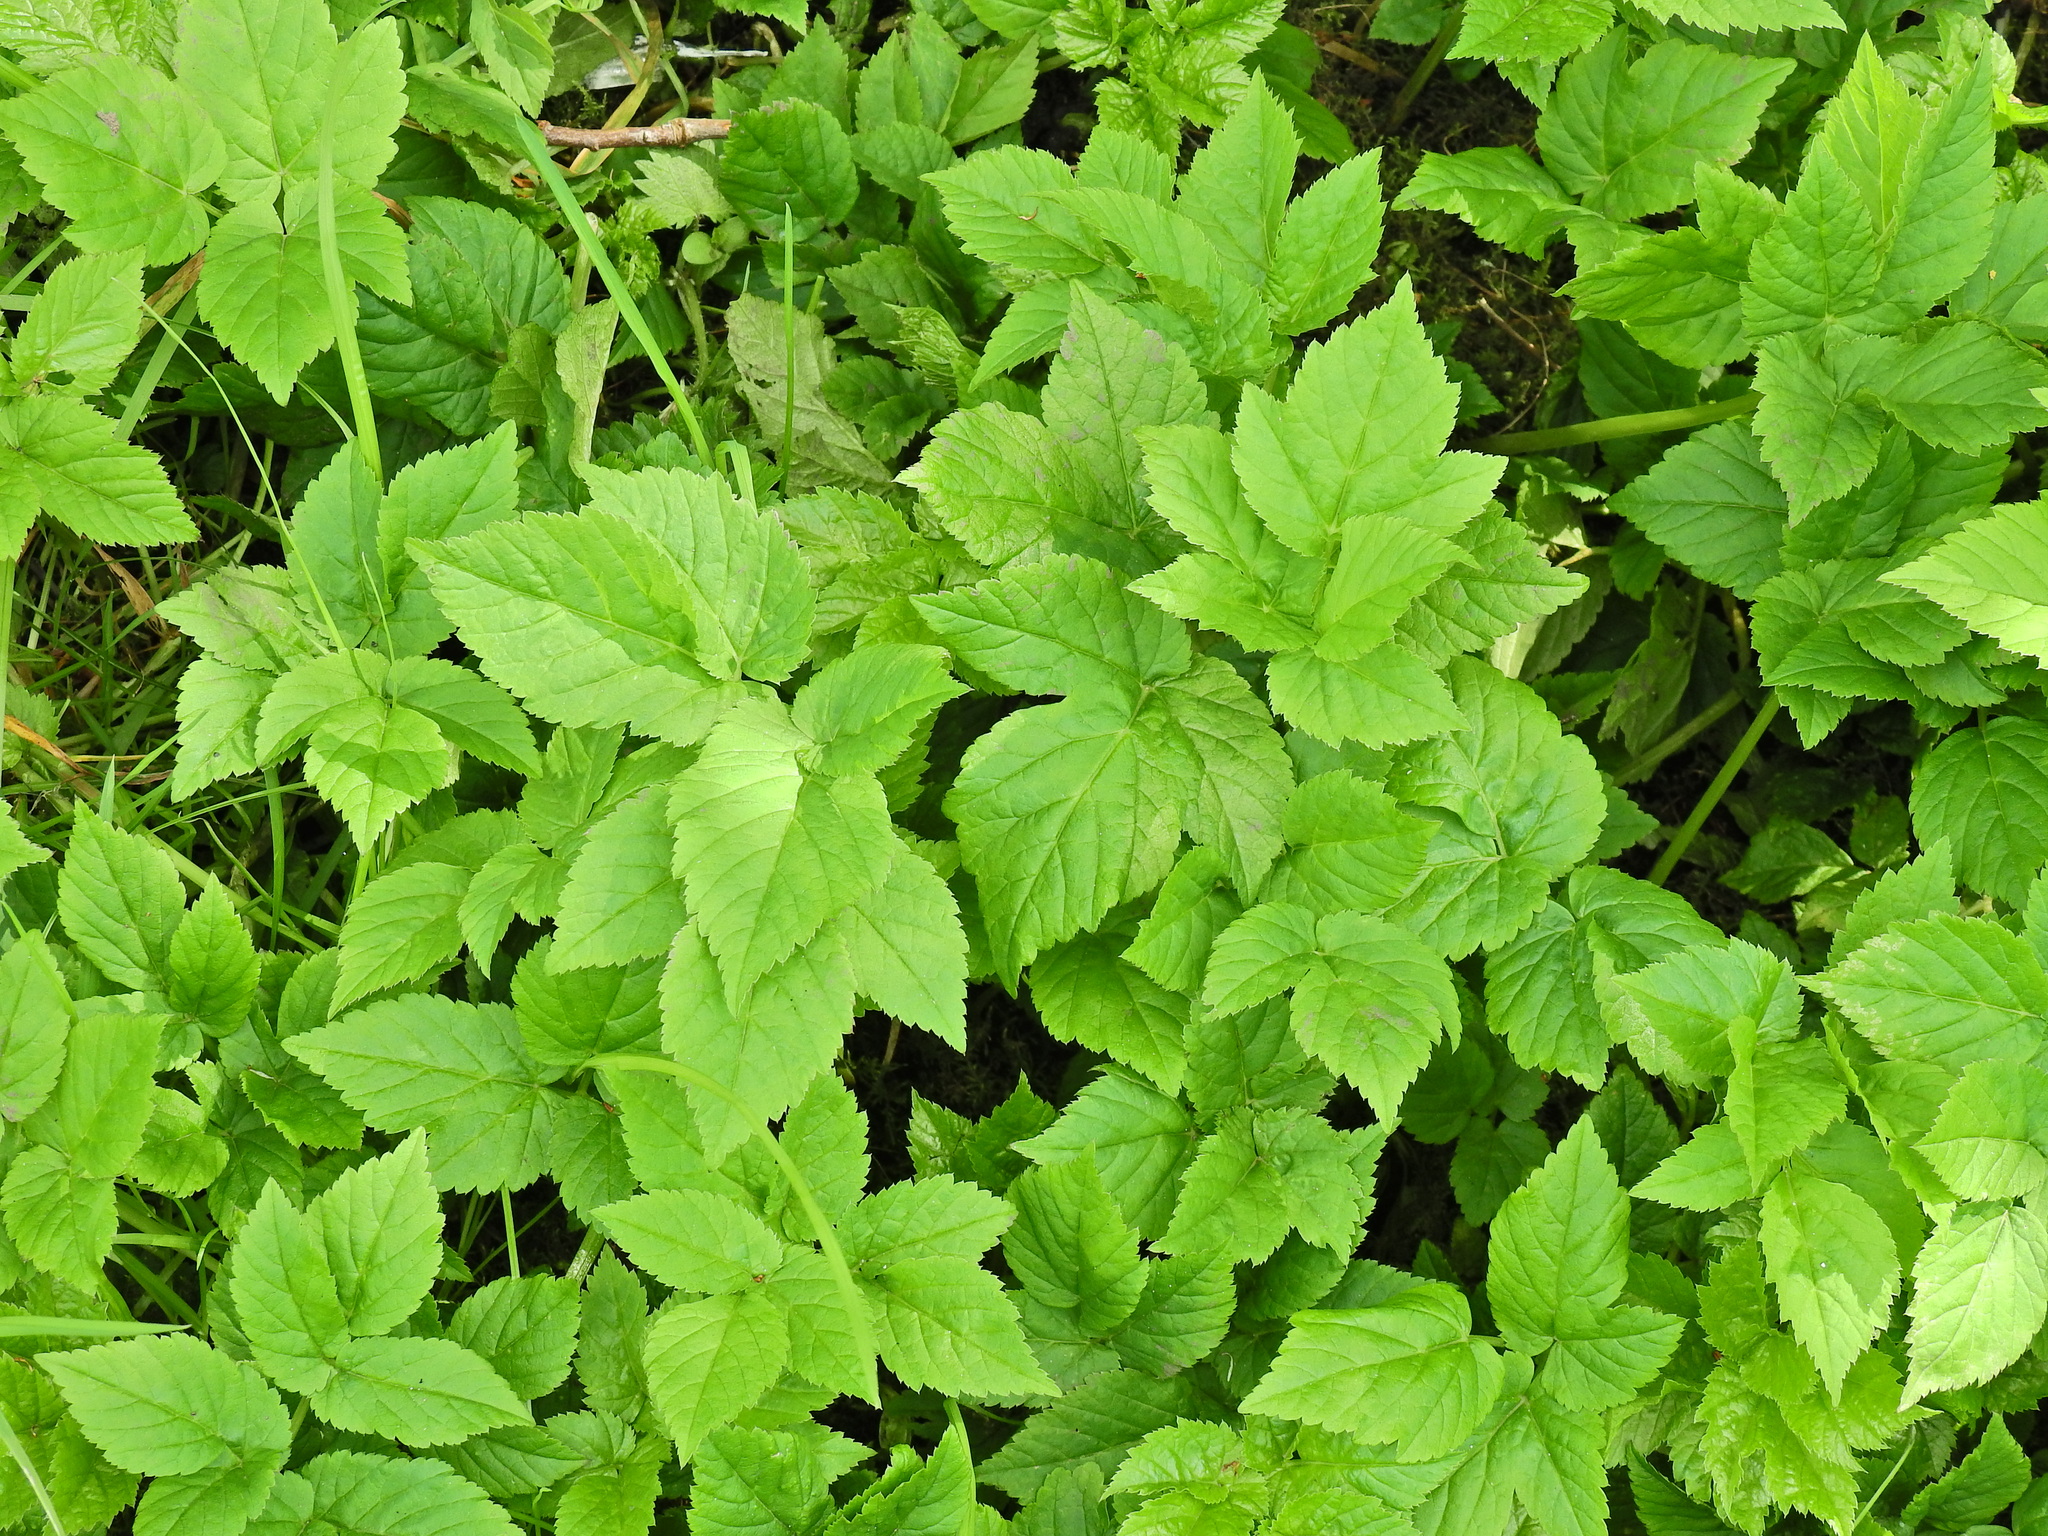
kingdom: Plantae
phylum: Tracheophyta
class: Magnoliopsida
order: Apiales
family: Apiaceae
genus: Aegopodium
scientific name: Aegopodium podagraria
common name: Ground-elder
